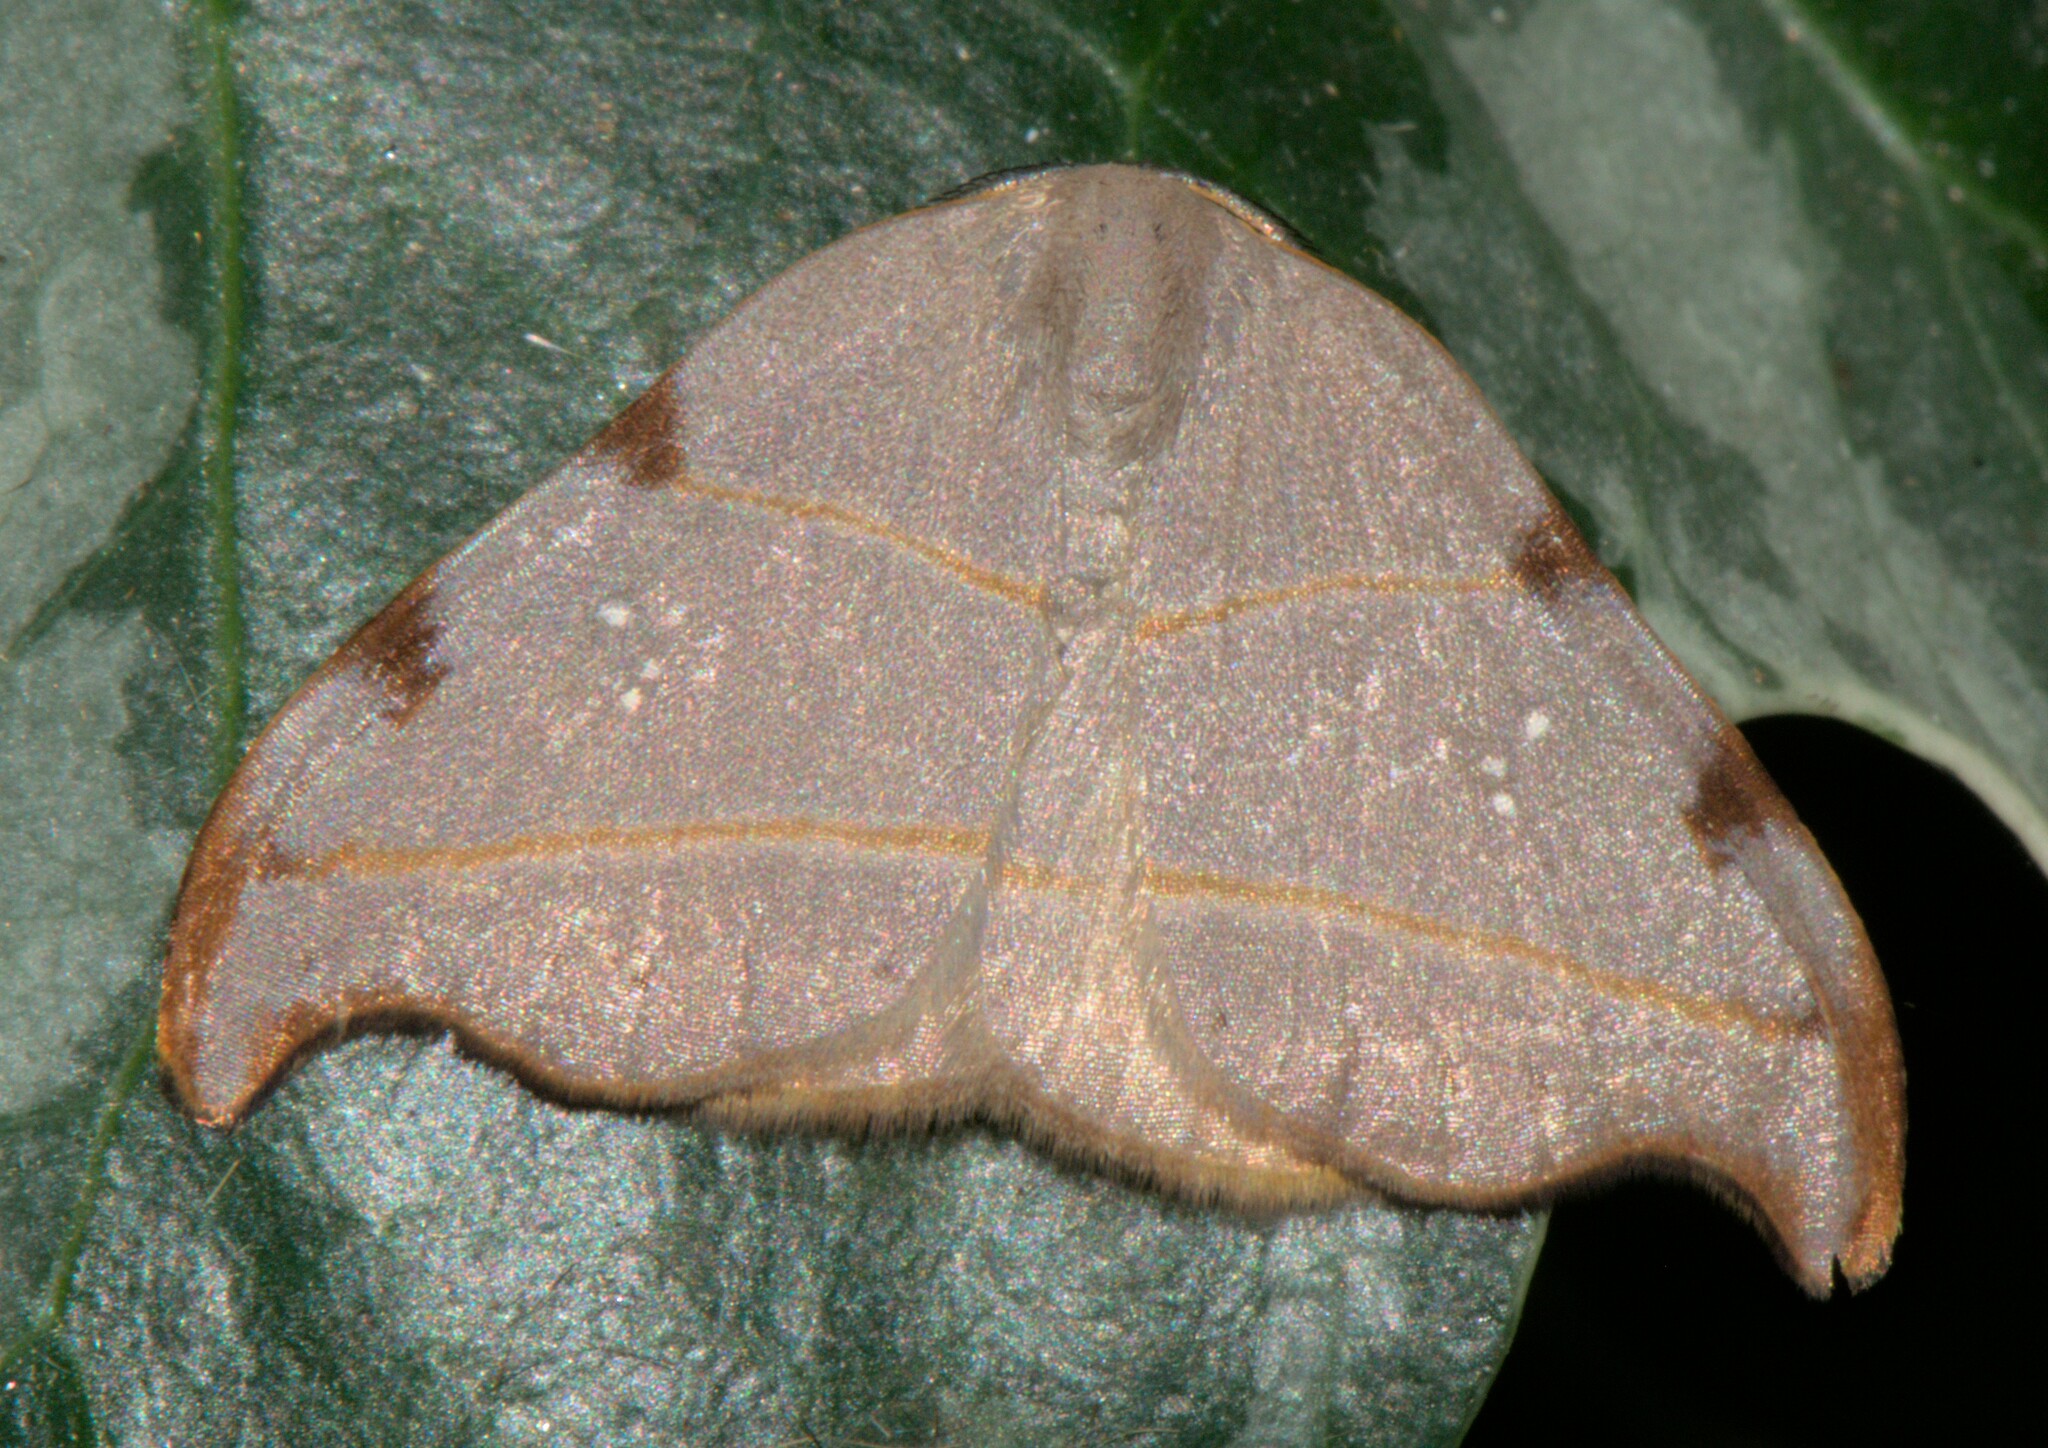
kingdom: Animalia
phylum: Arthropoda
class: Insecta
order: Lepidoptera
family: Drepanidae
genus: Nordstromia
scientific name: Nordstromia bicostata
